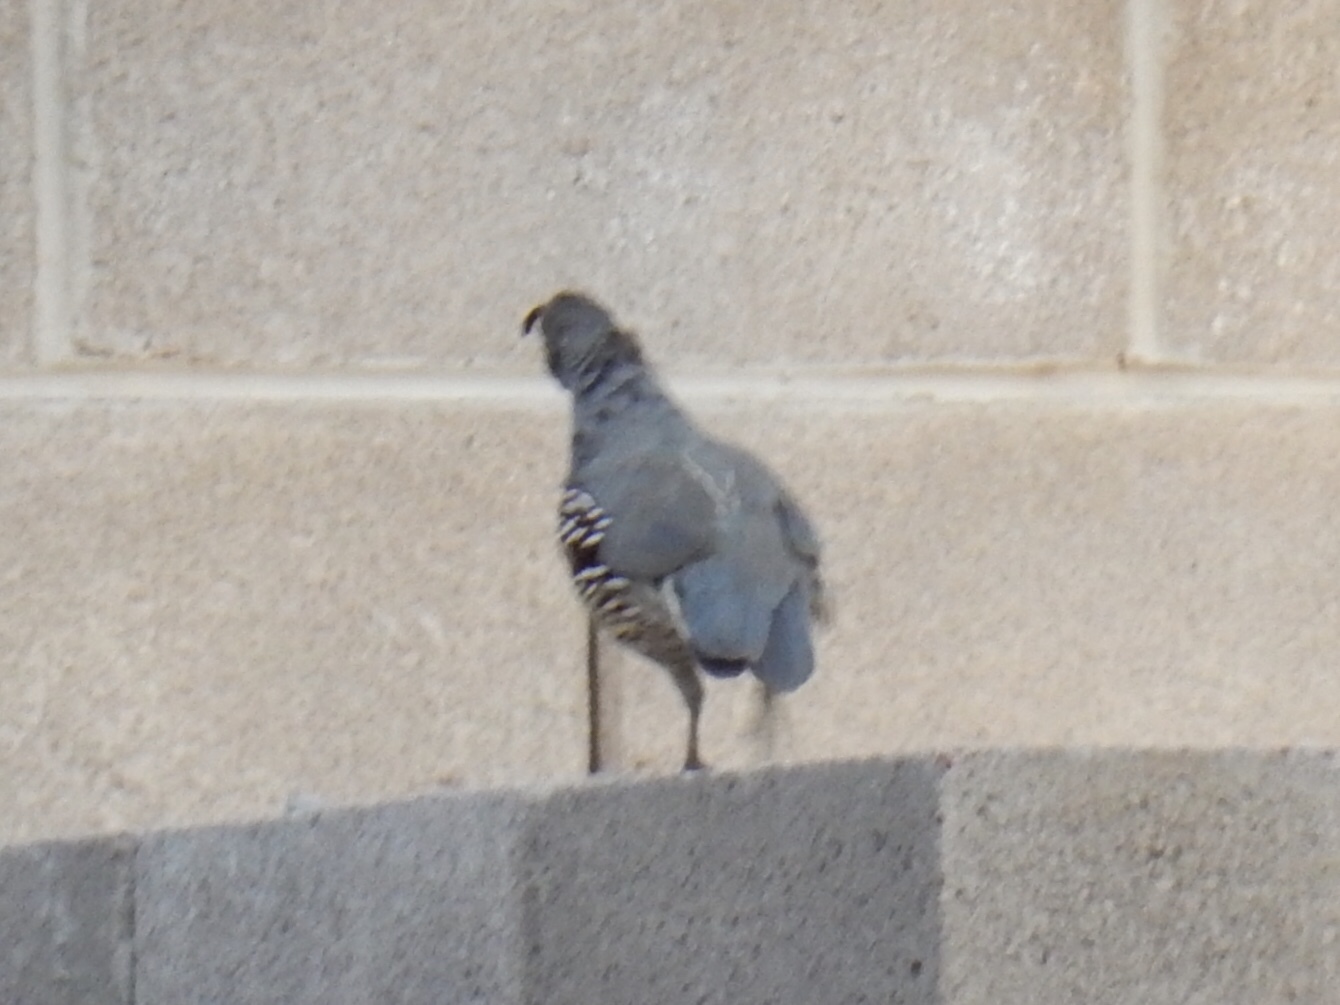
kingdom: Animalia
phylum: Chordata
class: Aves
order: Galliformes
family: Odontophoridae
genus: Callipepla
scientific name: Callipepla gambelii
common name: Gambel's quail
